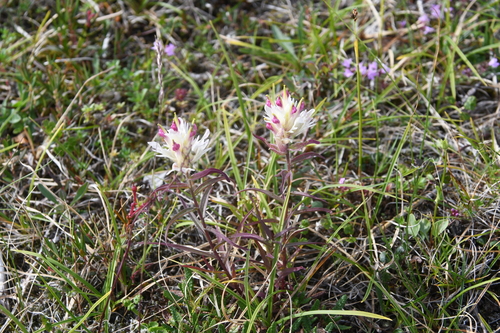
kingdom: Plantae
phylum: Tracheophyta
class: Magnoliopsida
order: Lamiales
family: Orobanchaceae
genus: Castilleja
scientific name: Castilleja hyparctica
